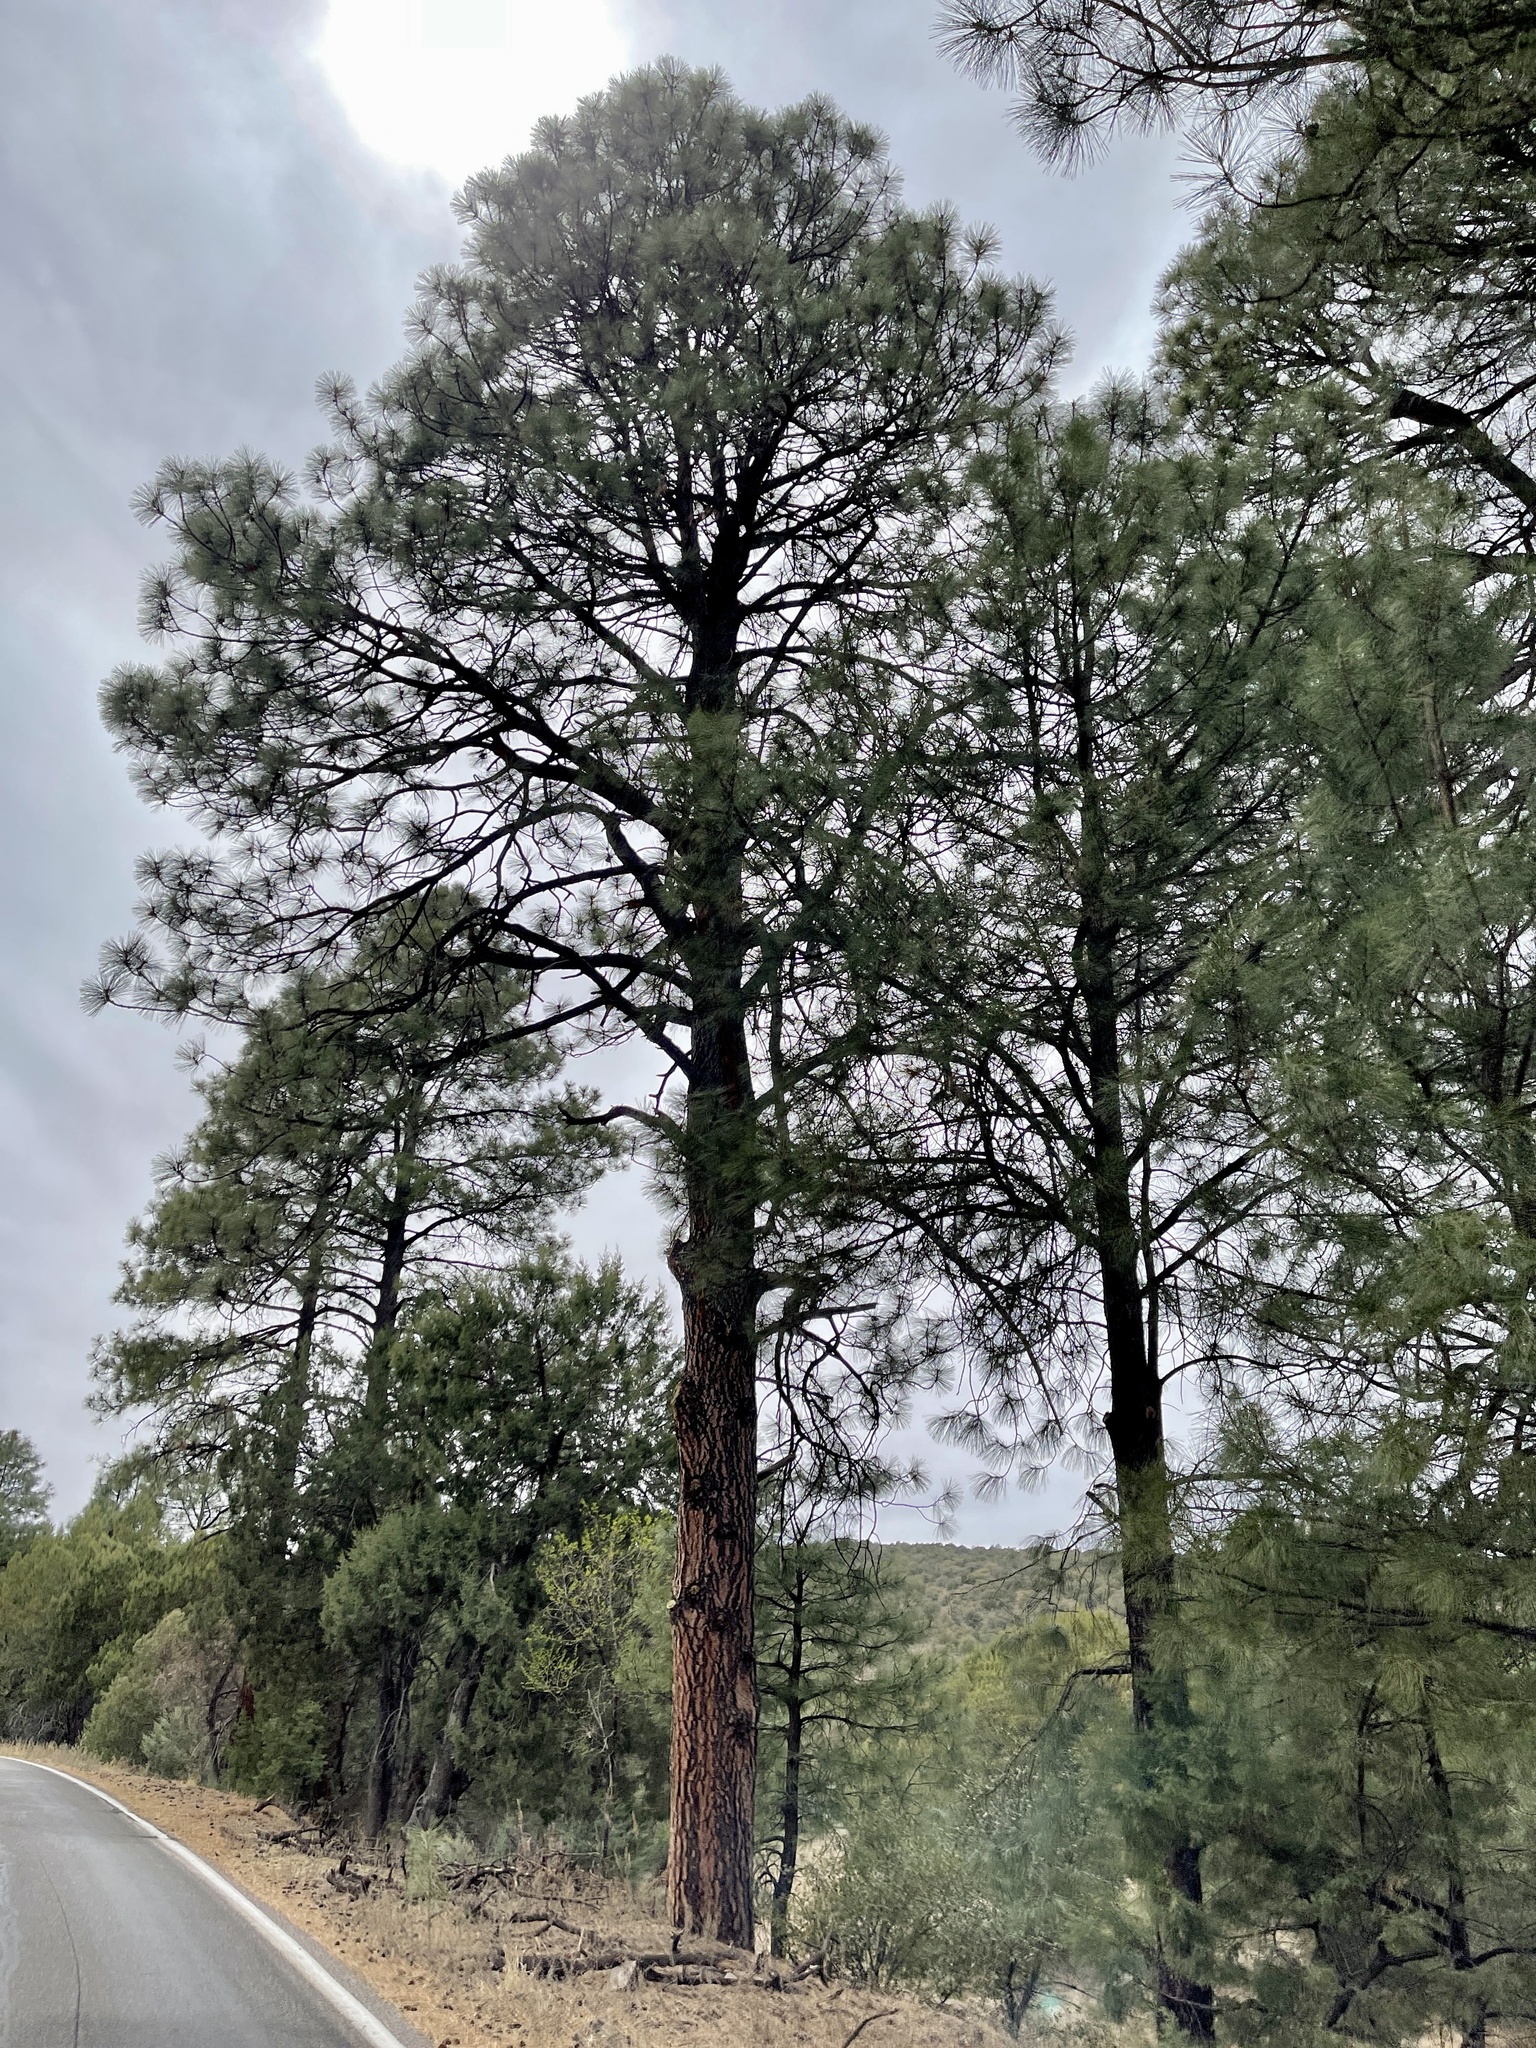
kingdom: Plantae
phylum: Tracheophyta
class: Pinopsida
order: Pinales
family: Pinaceae
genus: Pinus
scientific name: Pinus ponderosa
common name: Western yellow-pine
